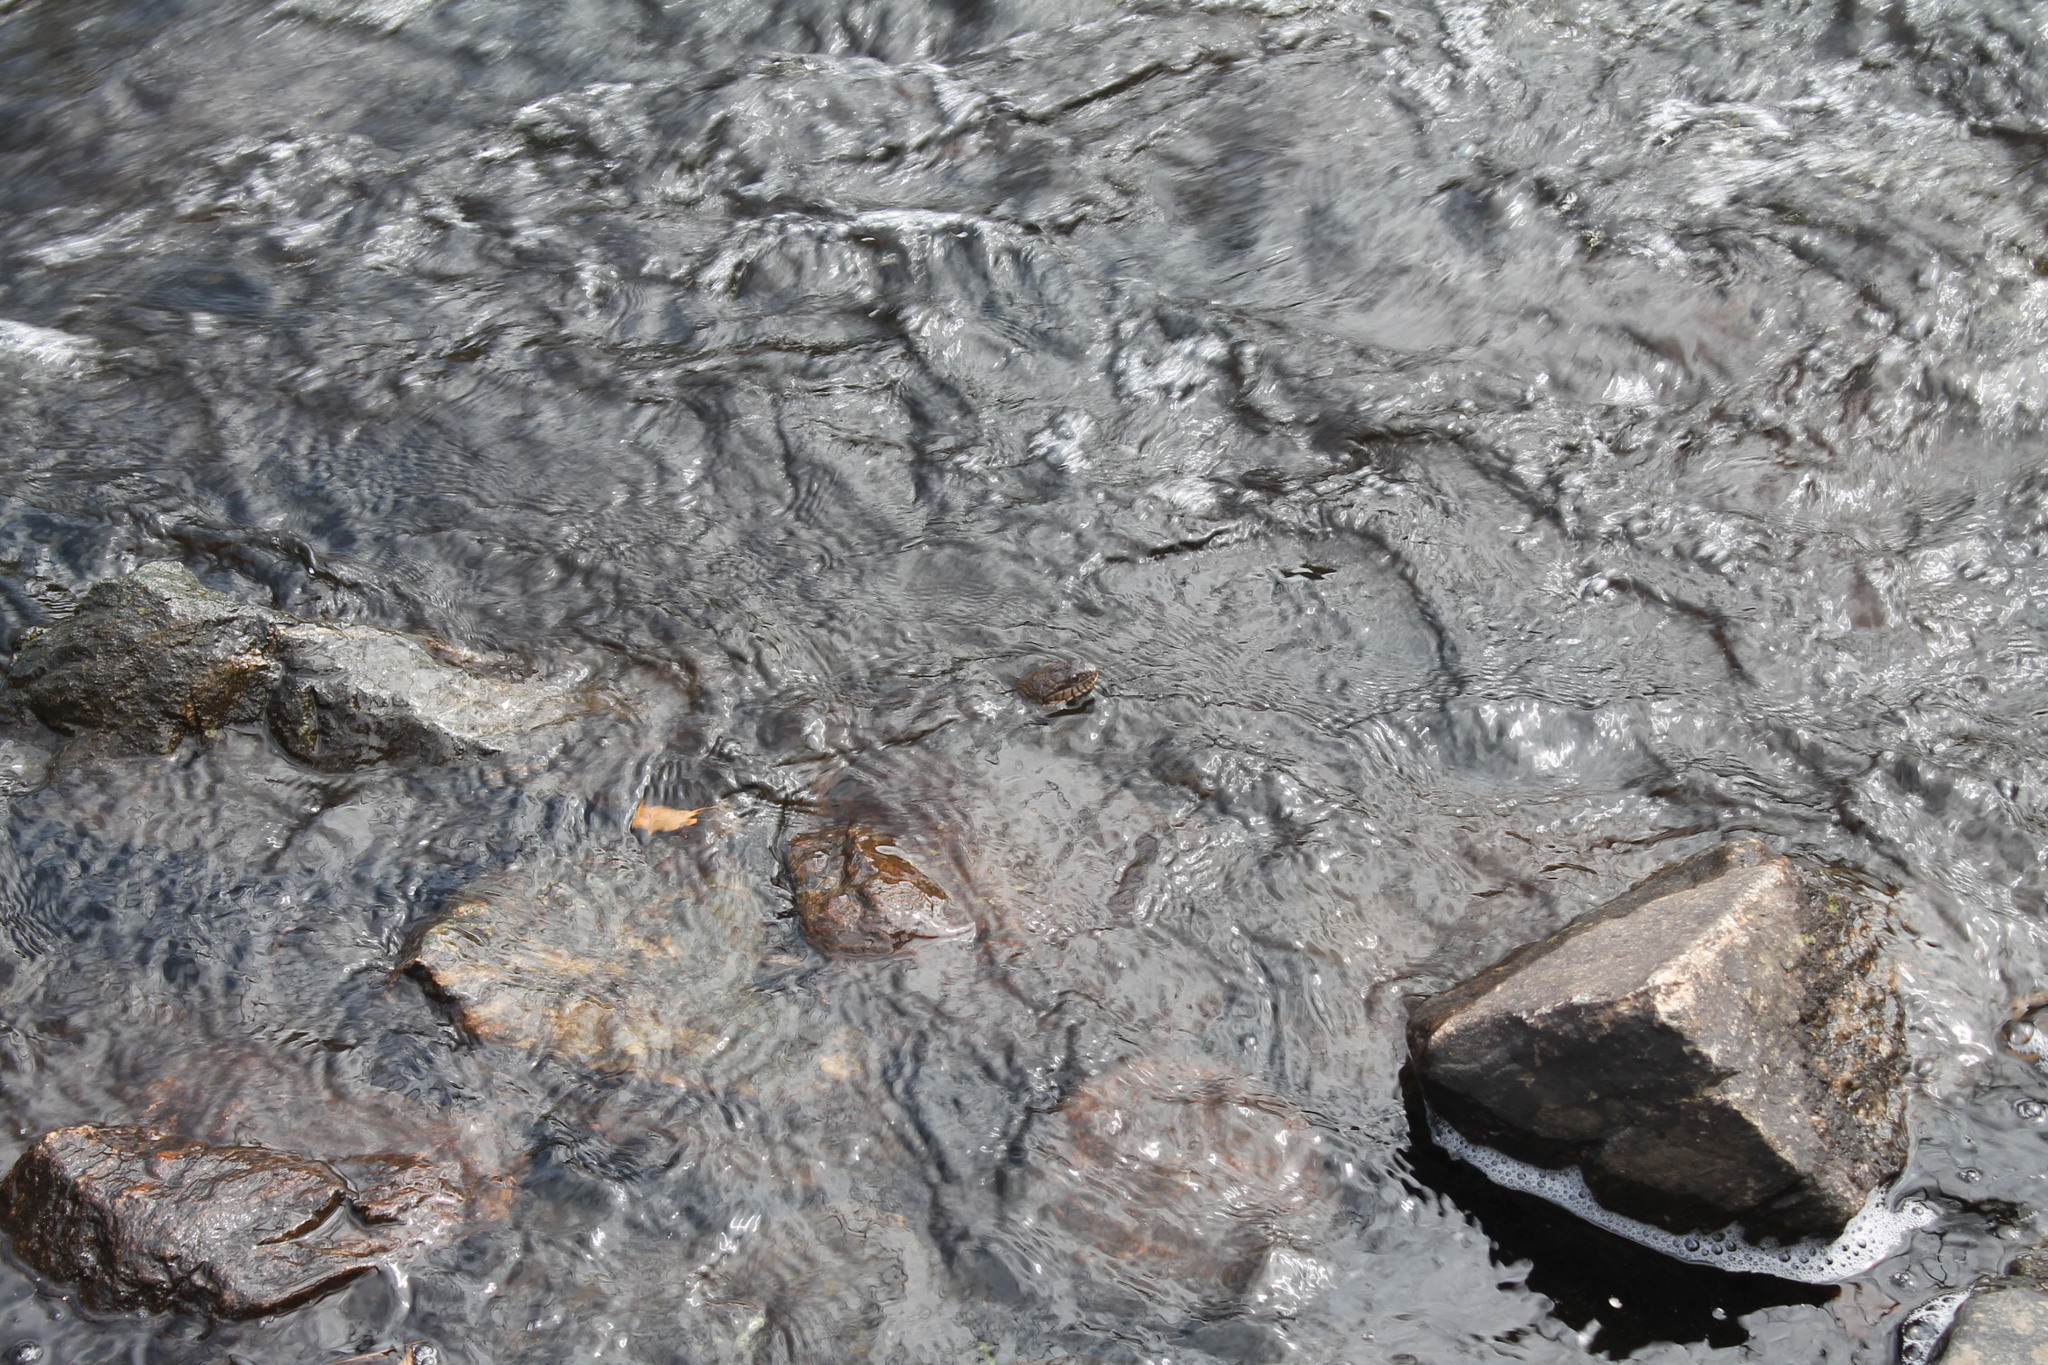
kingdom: Animalia
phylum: Chordata
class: Squamata
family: Colubridae
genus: Nerodia
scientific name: Nerodia sipedon
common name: Northern water snake
